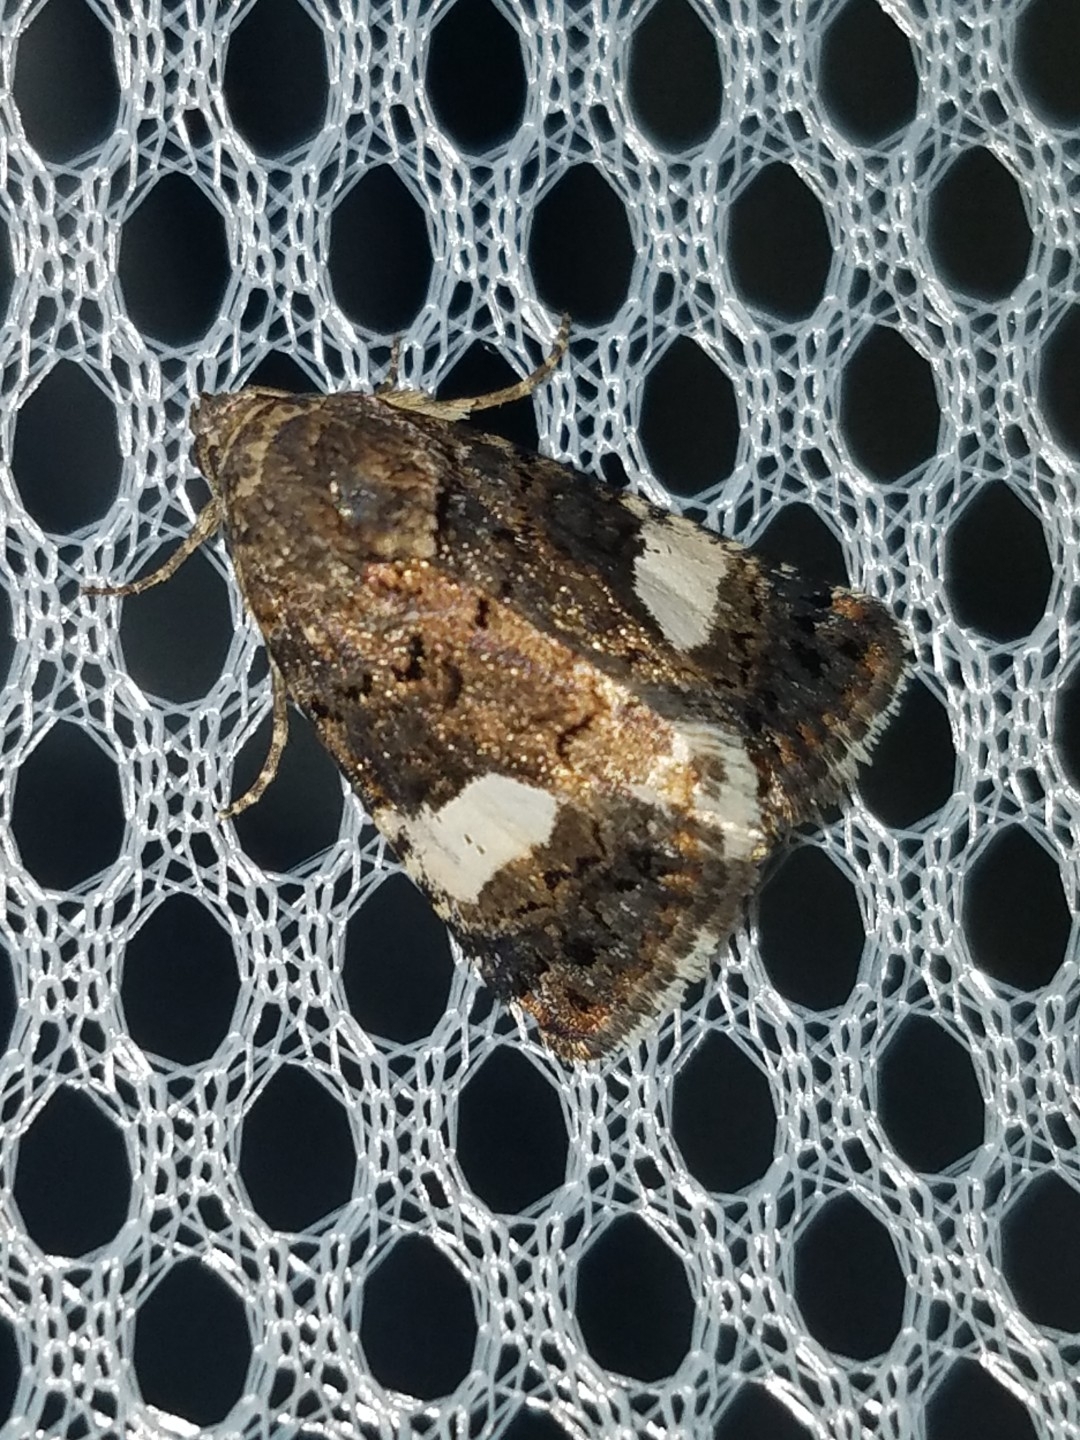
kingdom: Animalia
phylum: Arthropoda
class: Insecta
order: Lepidoptera
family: Erebidae
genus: Tyta
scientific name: Tyta luctuosa
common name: Four-spotted
